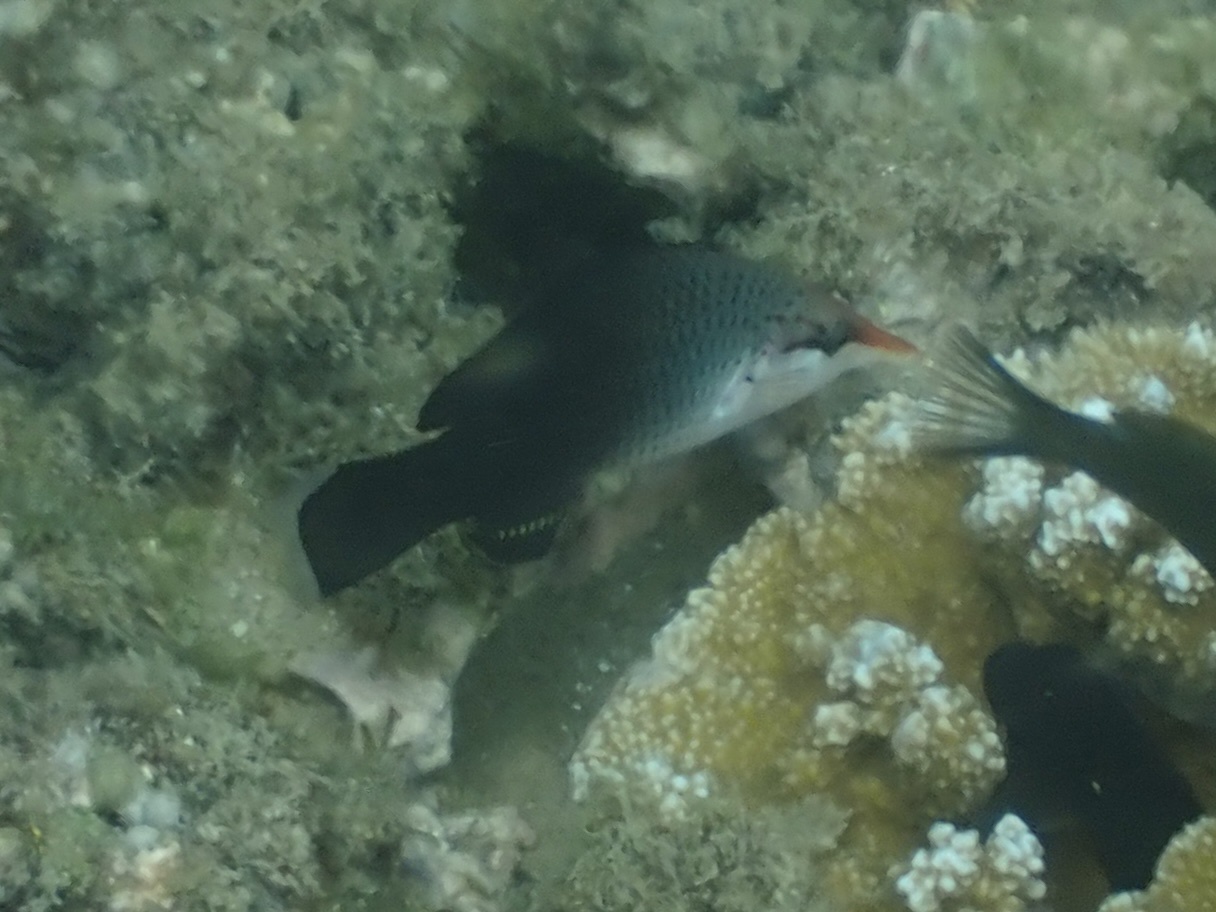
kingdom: Animalia
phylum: Chordata
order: Perciformes
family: Labridae
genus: Gomphosus
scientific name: Gomphosus varius
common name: Bird wrasse
